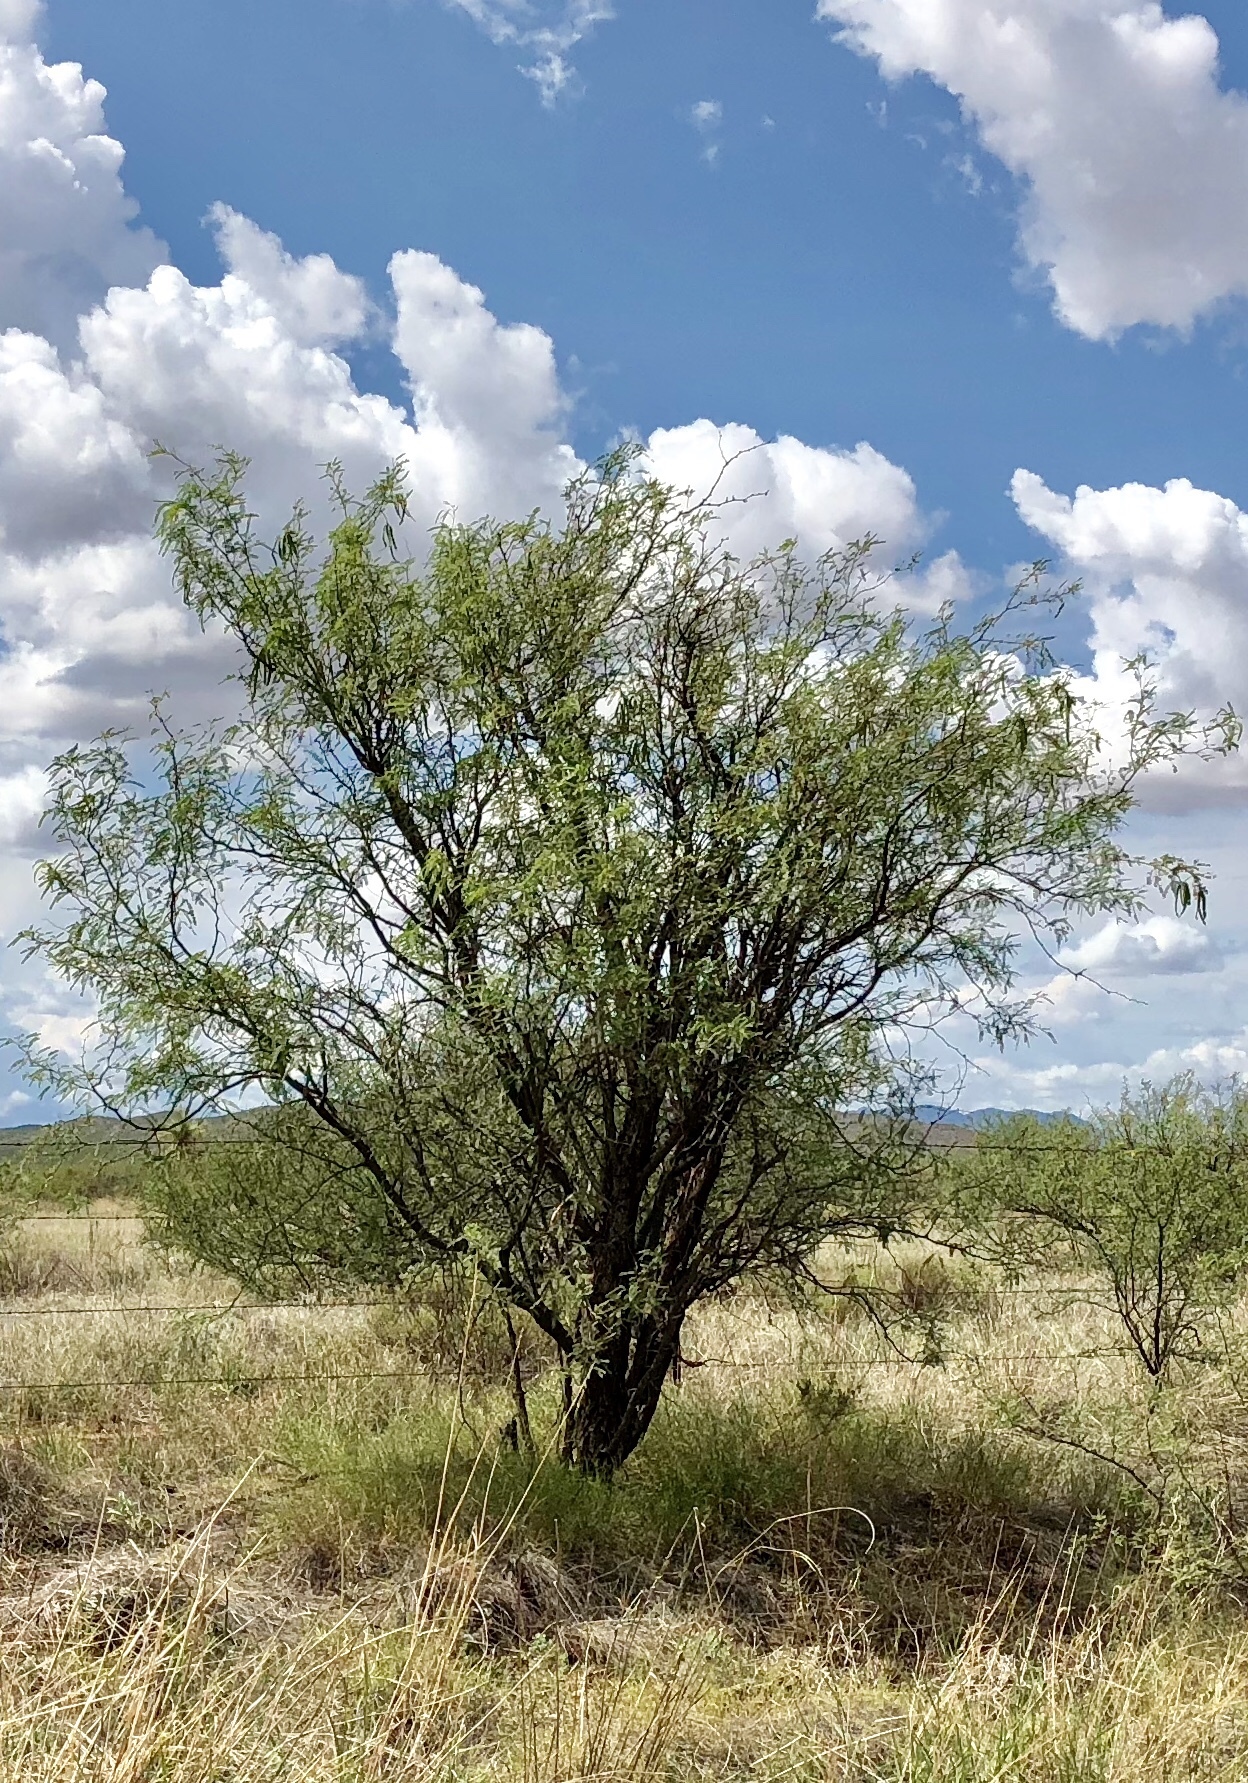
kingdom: Plantae
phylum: Tracheophyta
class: Magnoliopsida
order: Fabales
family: Fabaceae
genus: Prosopis
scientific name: Prosopis glandulosa
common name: Honey mesquite
